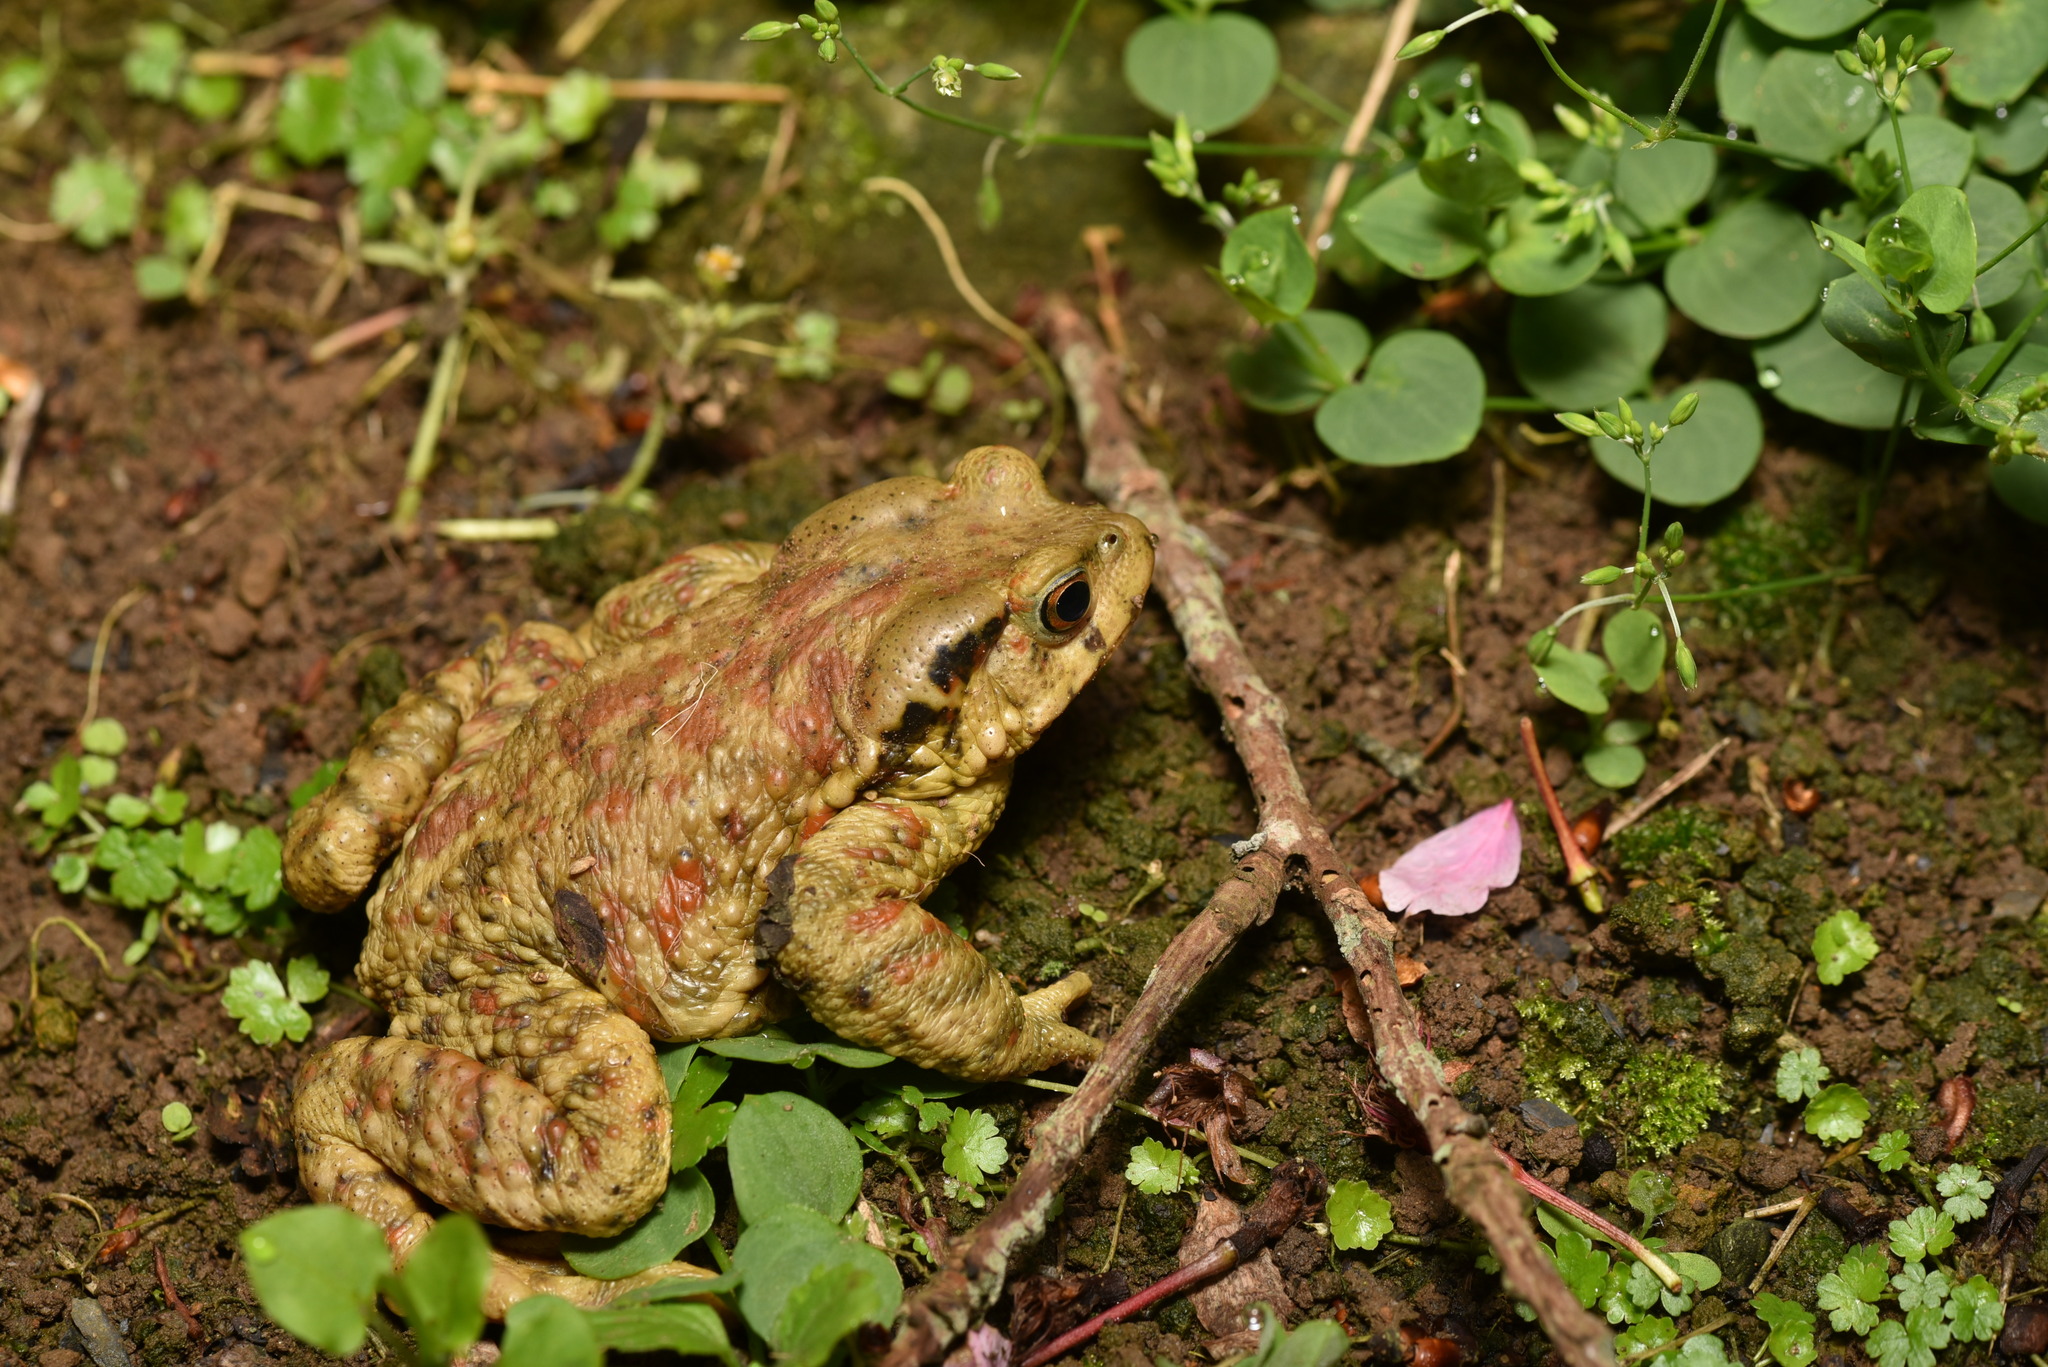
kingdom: Animalia
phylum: Chordata
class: Amphibia
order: Anura
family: Bufonidae
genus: Bufo
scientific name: Bufo bankorensis
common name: Bankor toad
